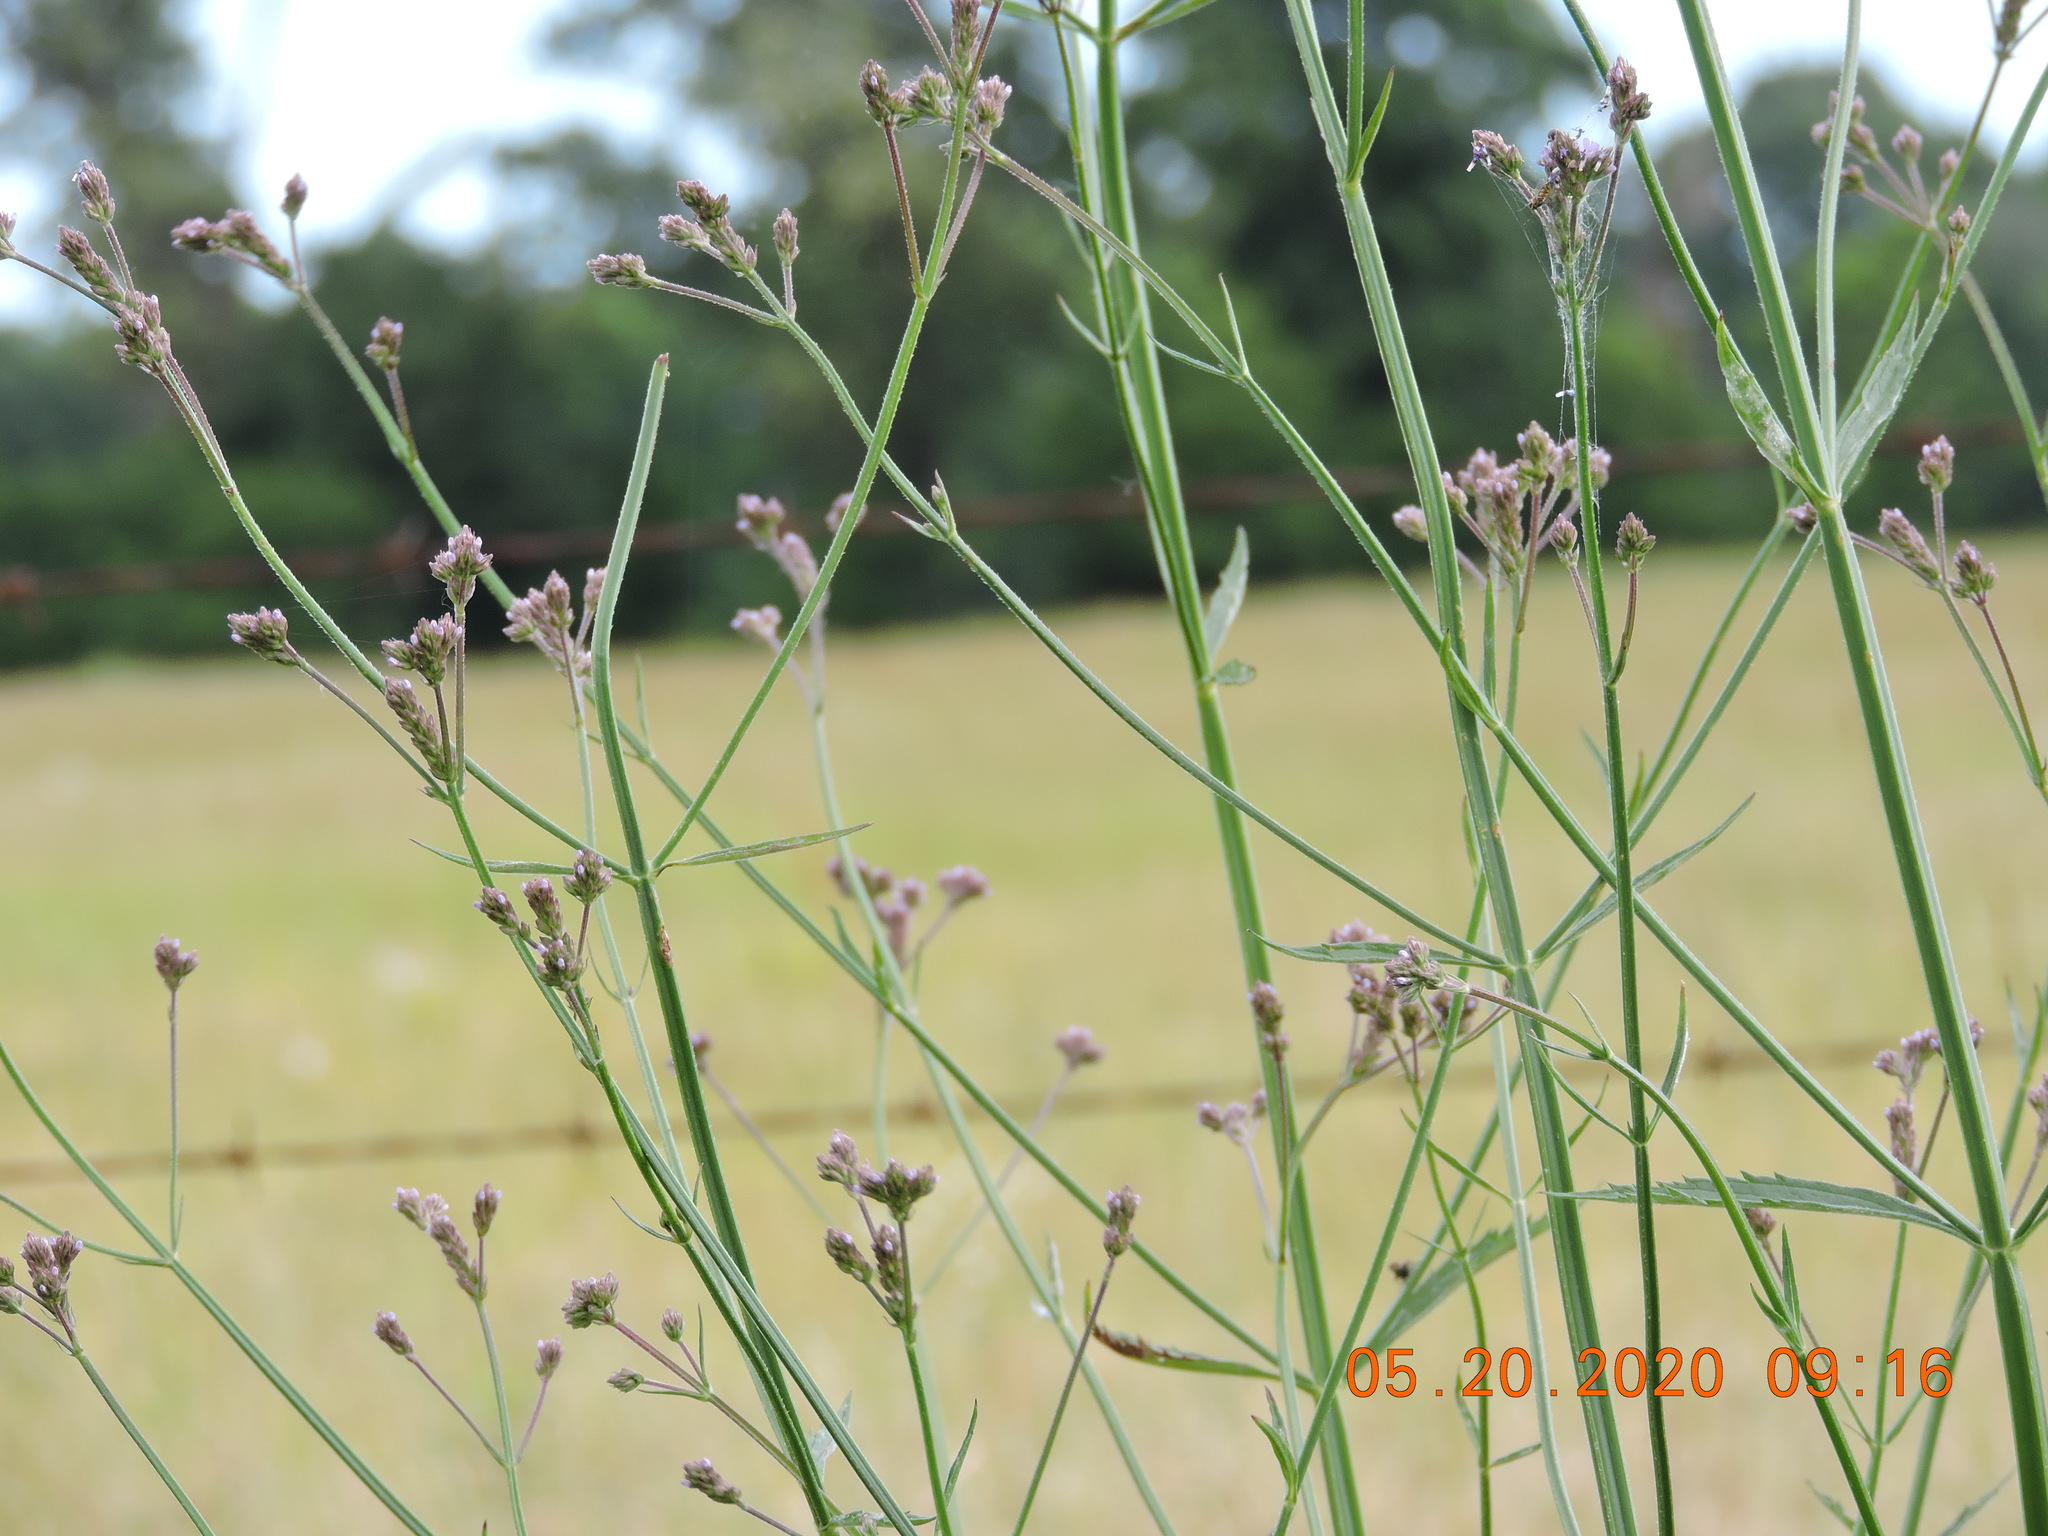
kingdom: Plantae
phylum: Tracheophyta
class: Magnoliopsida
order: Lamiales
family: Verbenaceae
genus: Verbena
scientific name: Verbena brasiliensis
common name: Brazilian vervain
